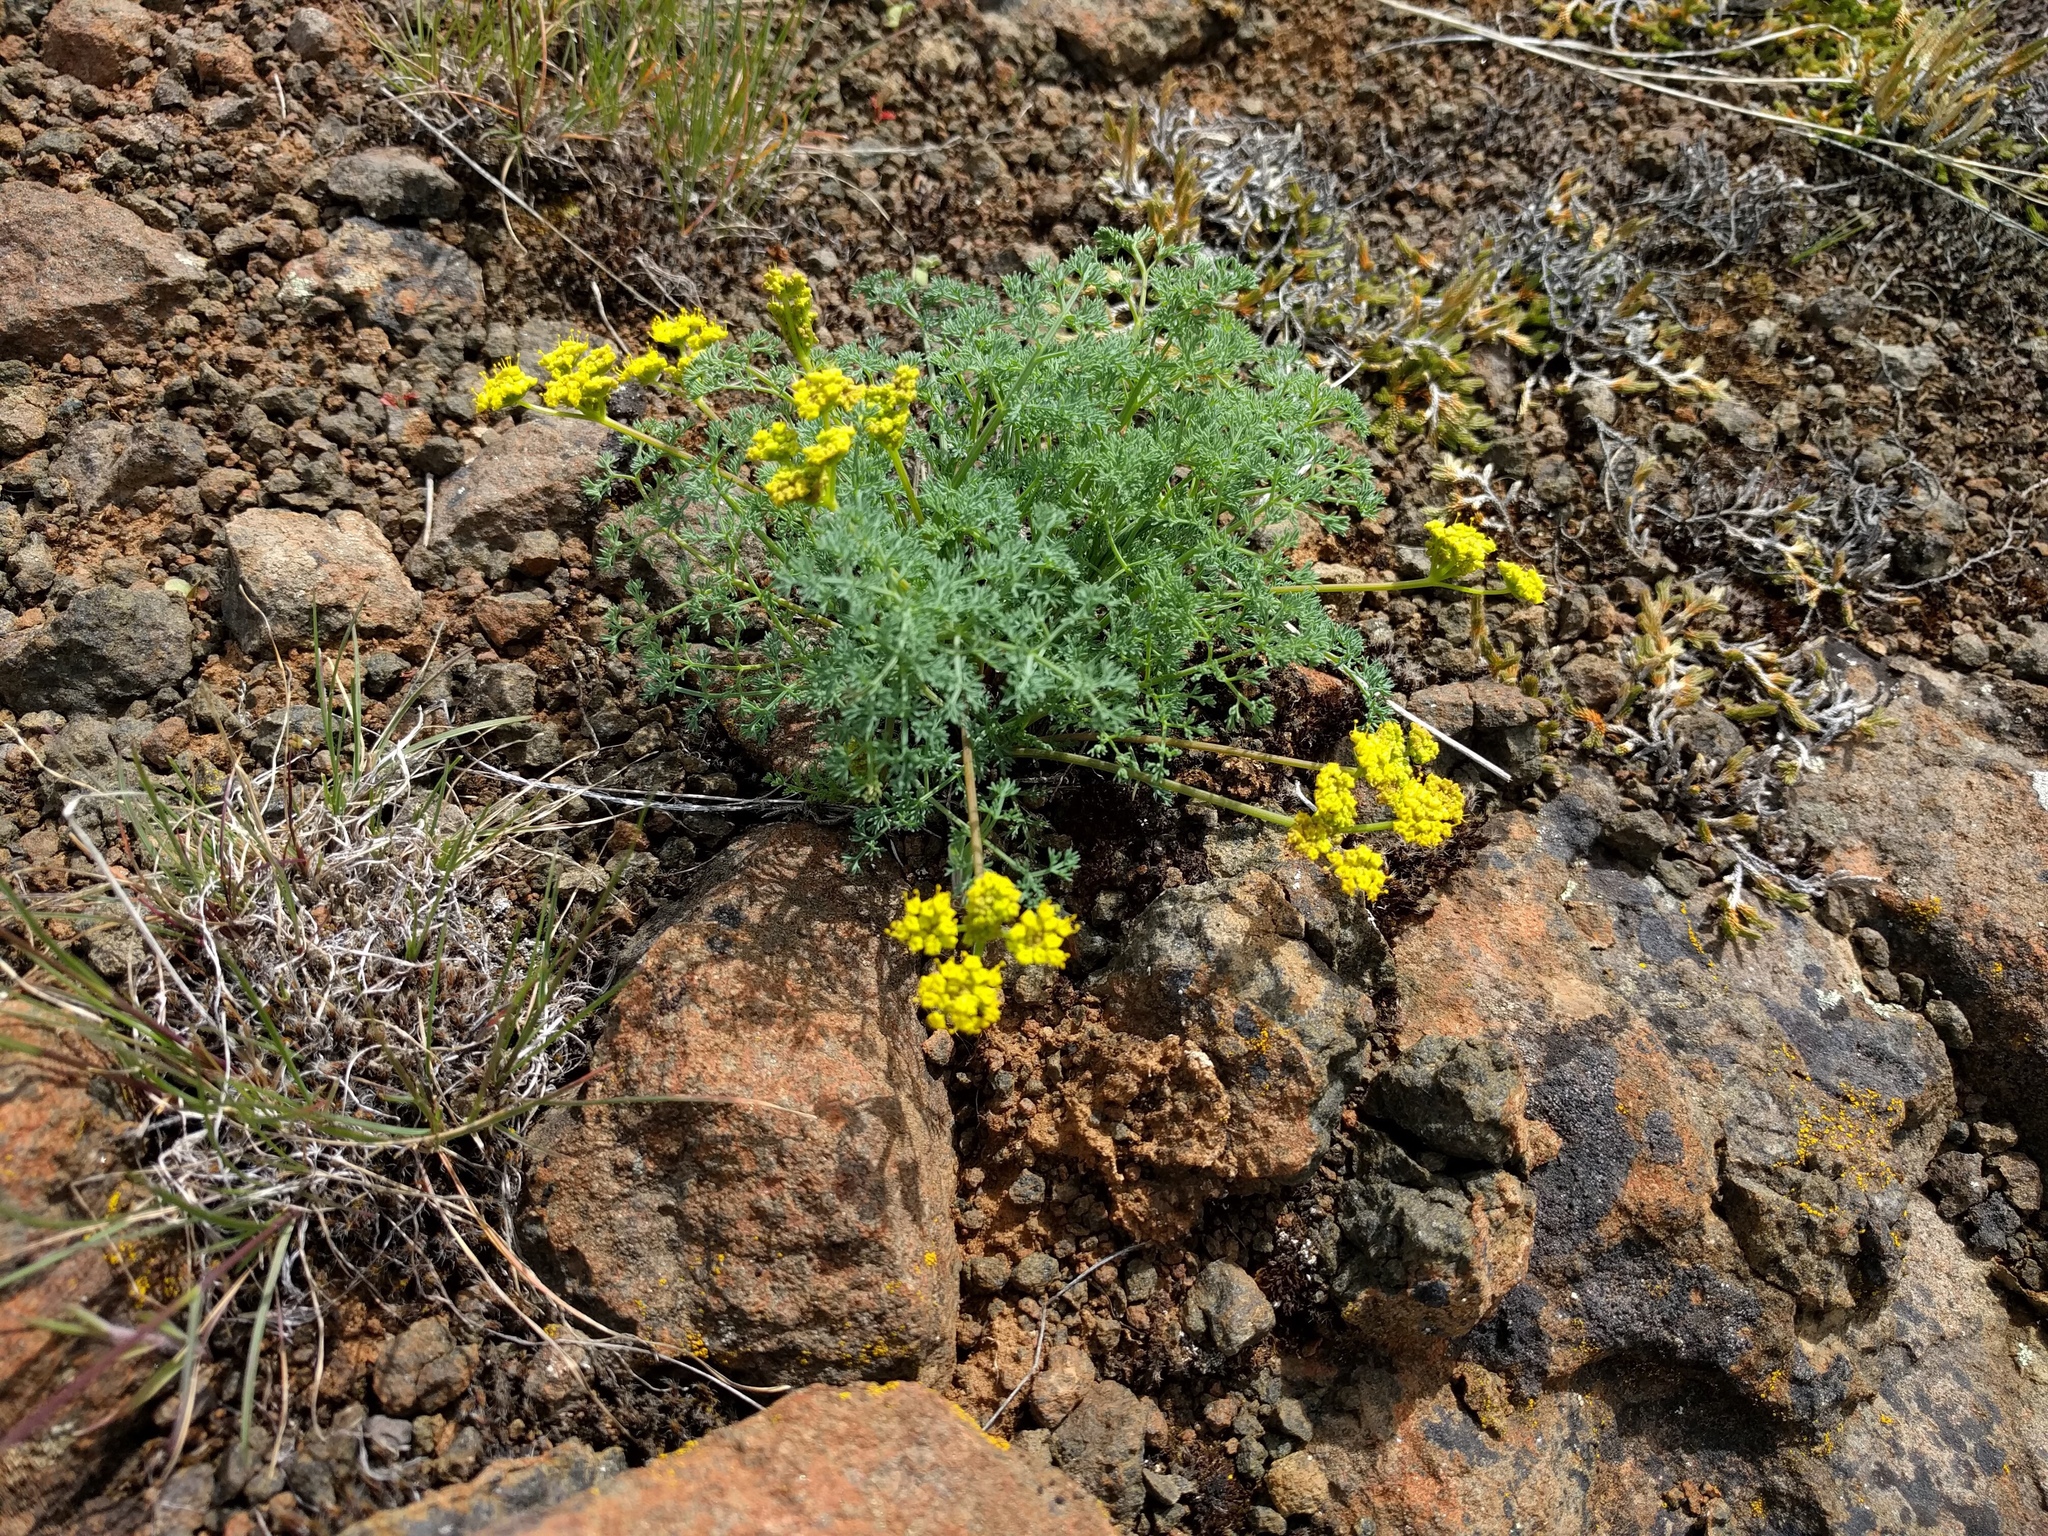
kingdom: Plantae
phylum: Tracheophyta
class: Magnoliopsida
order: Apiales
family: Apiaceae
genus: Lomatium
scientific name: Lomatium papilioniferum
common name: Butterfly lomatium
